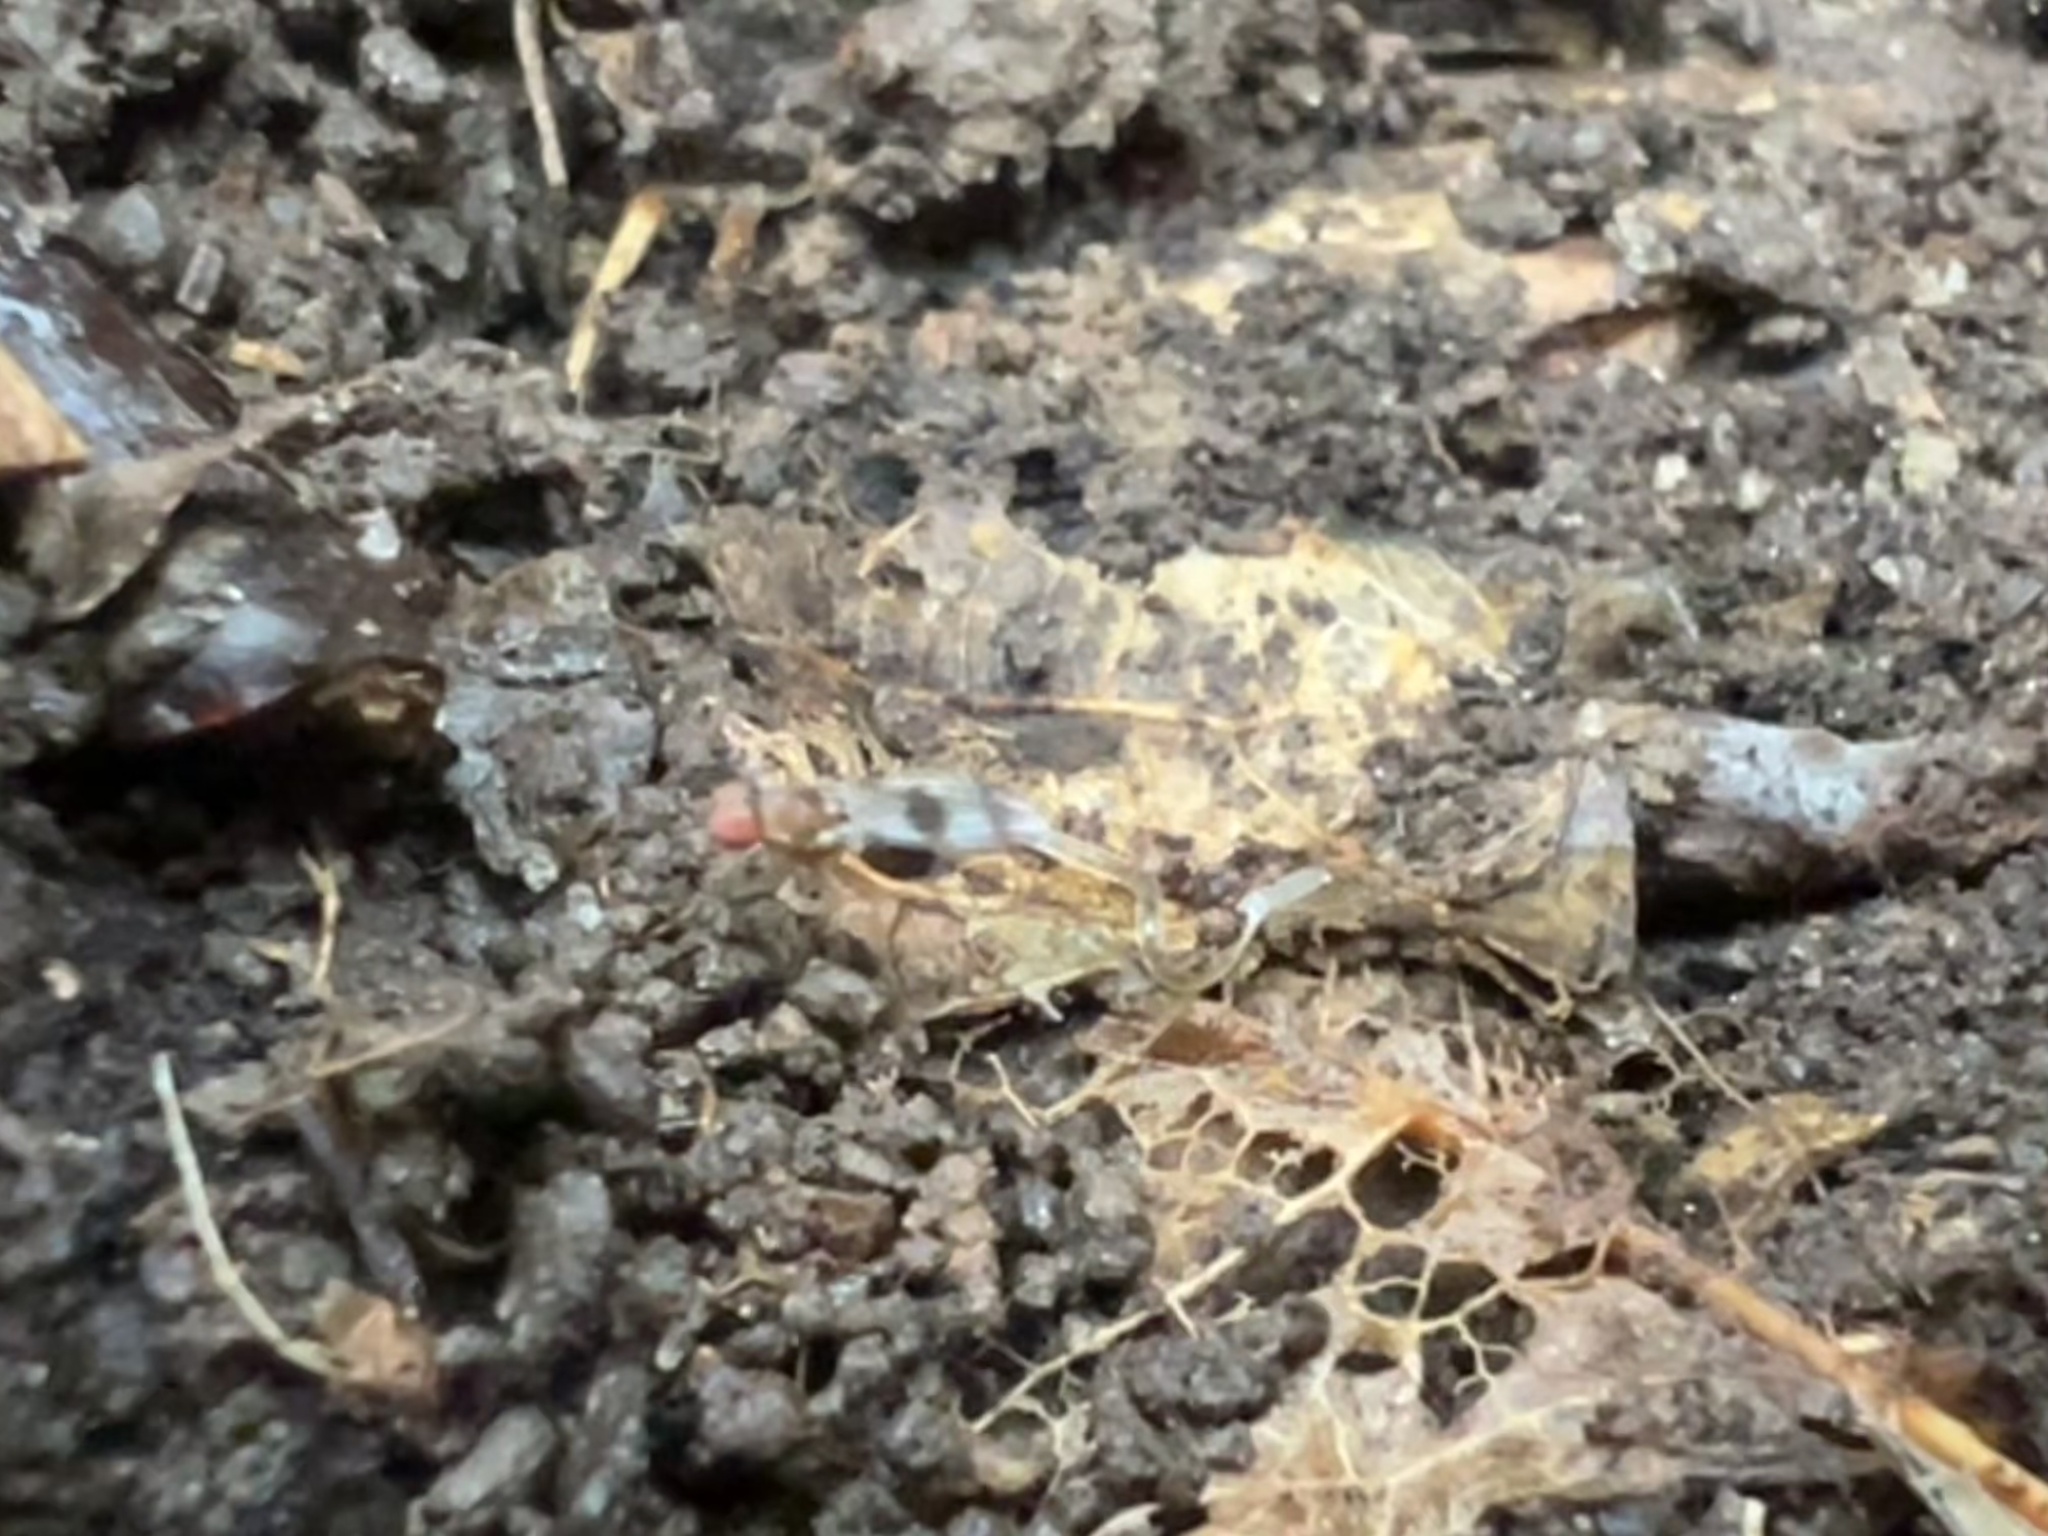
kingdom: Animalia
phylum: Arthropoda
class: Insecta
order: Diptera
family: Drosophilidae
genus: Chymomyza
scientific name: Chymomyza amoena
